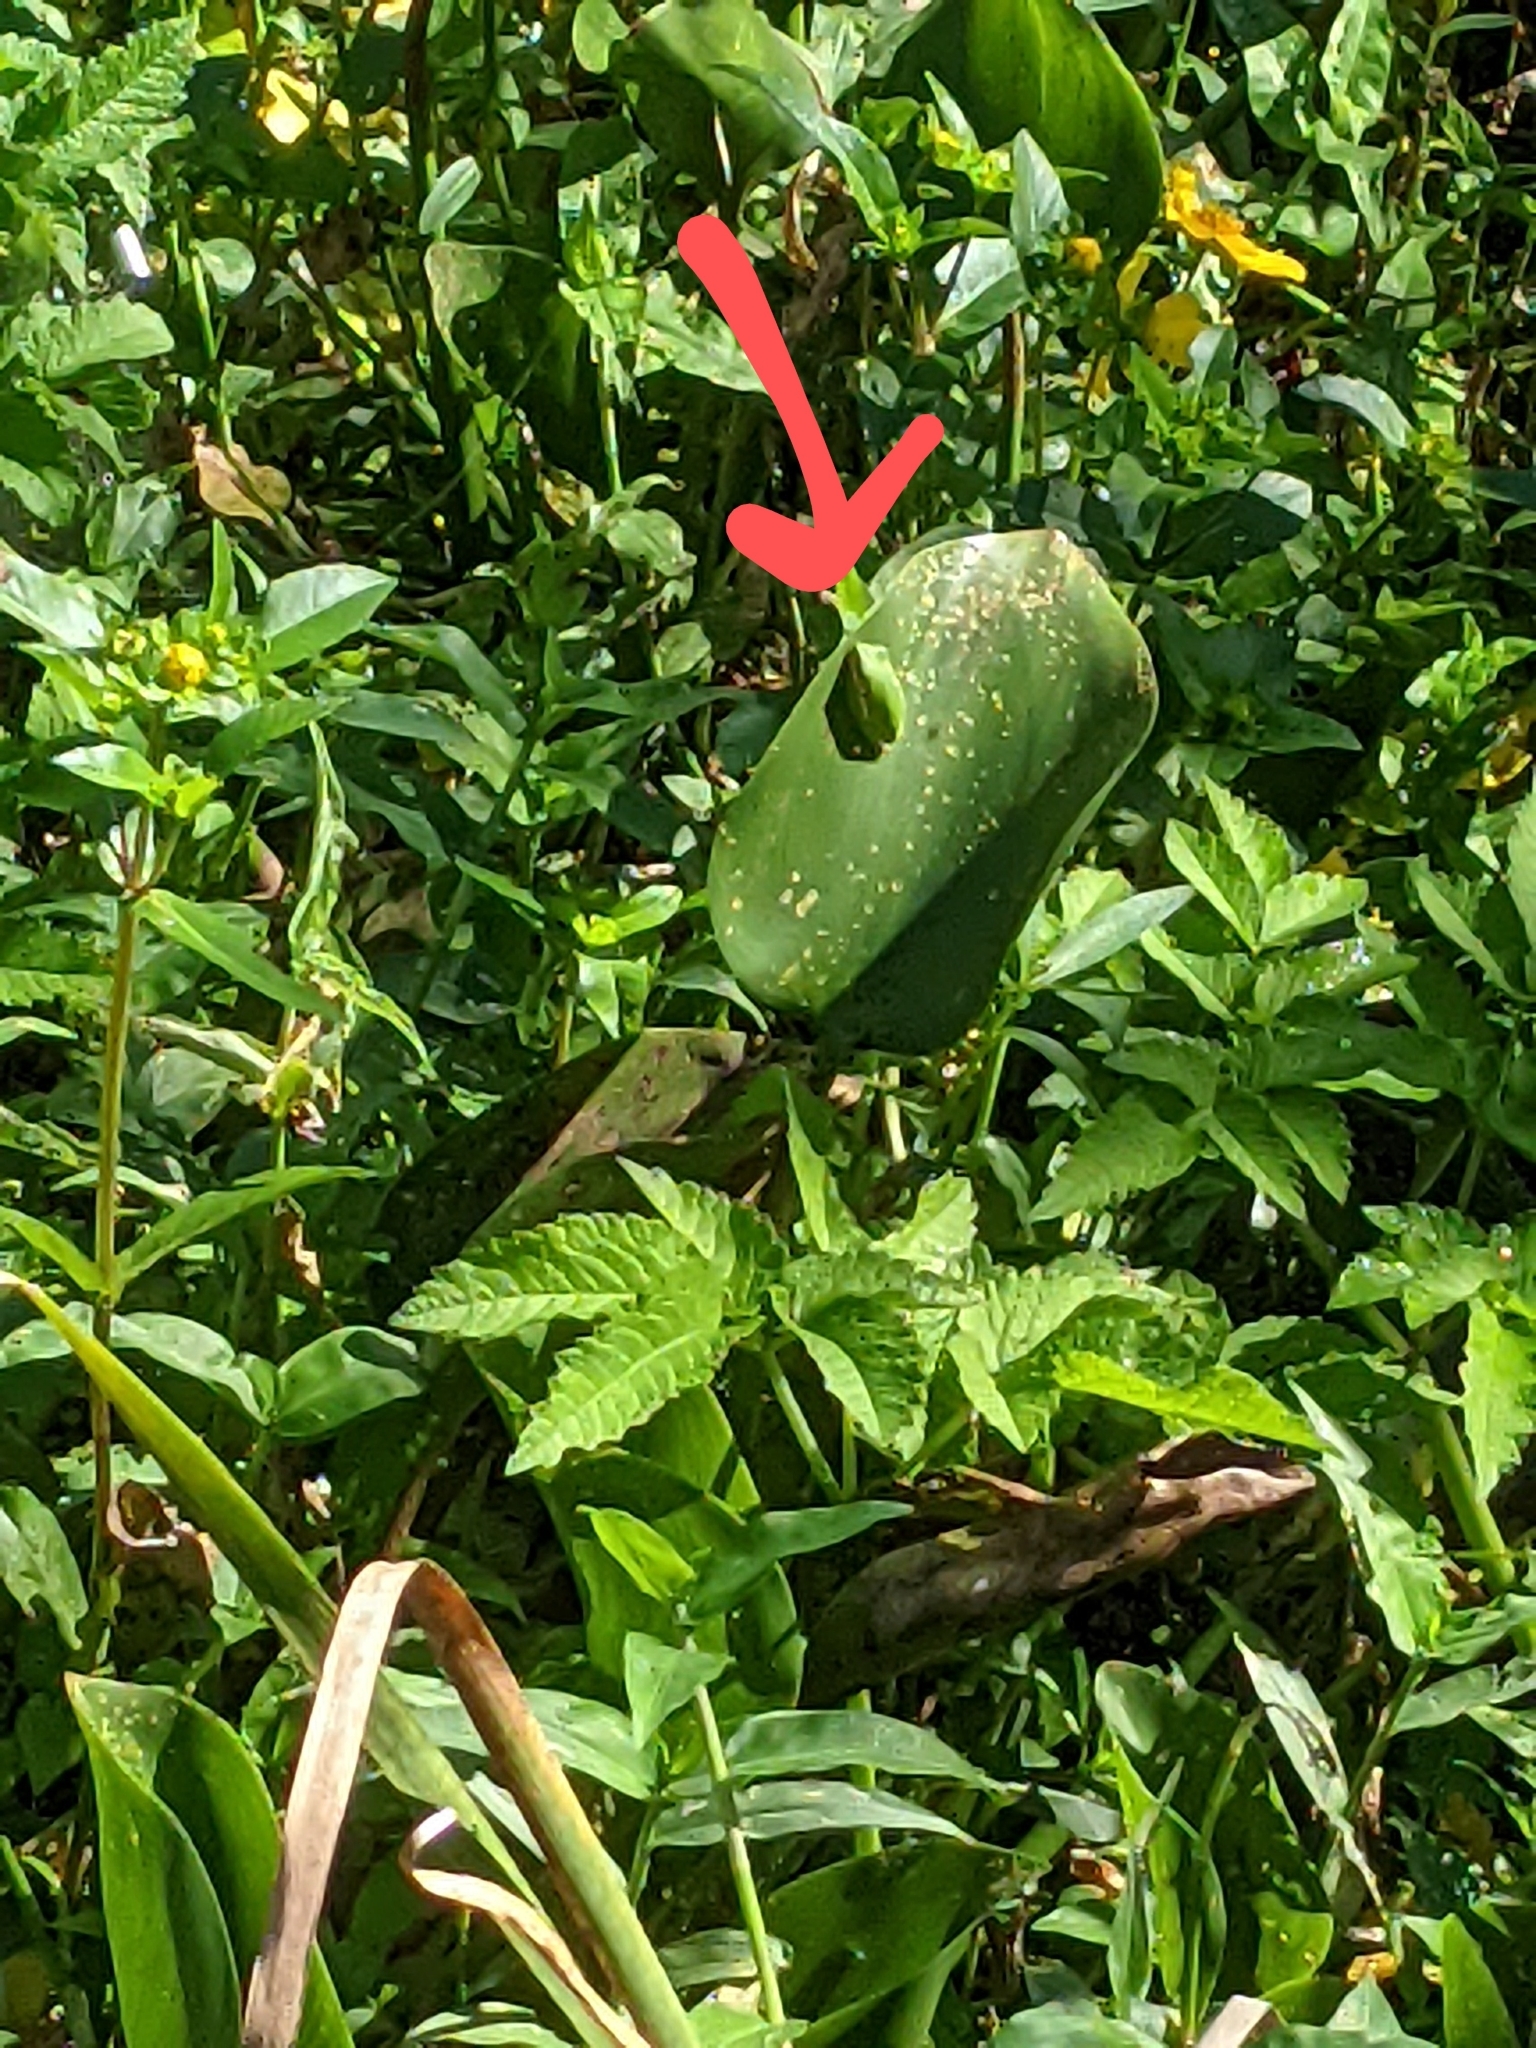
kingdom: Animalia
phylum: Chordata
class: Amphibia
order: Anura
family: Hylidae
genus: Dryophytes
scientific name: Dryophytes cinereus
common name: Green treefrog
